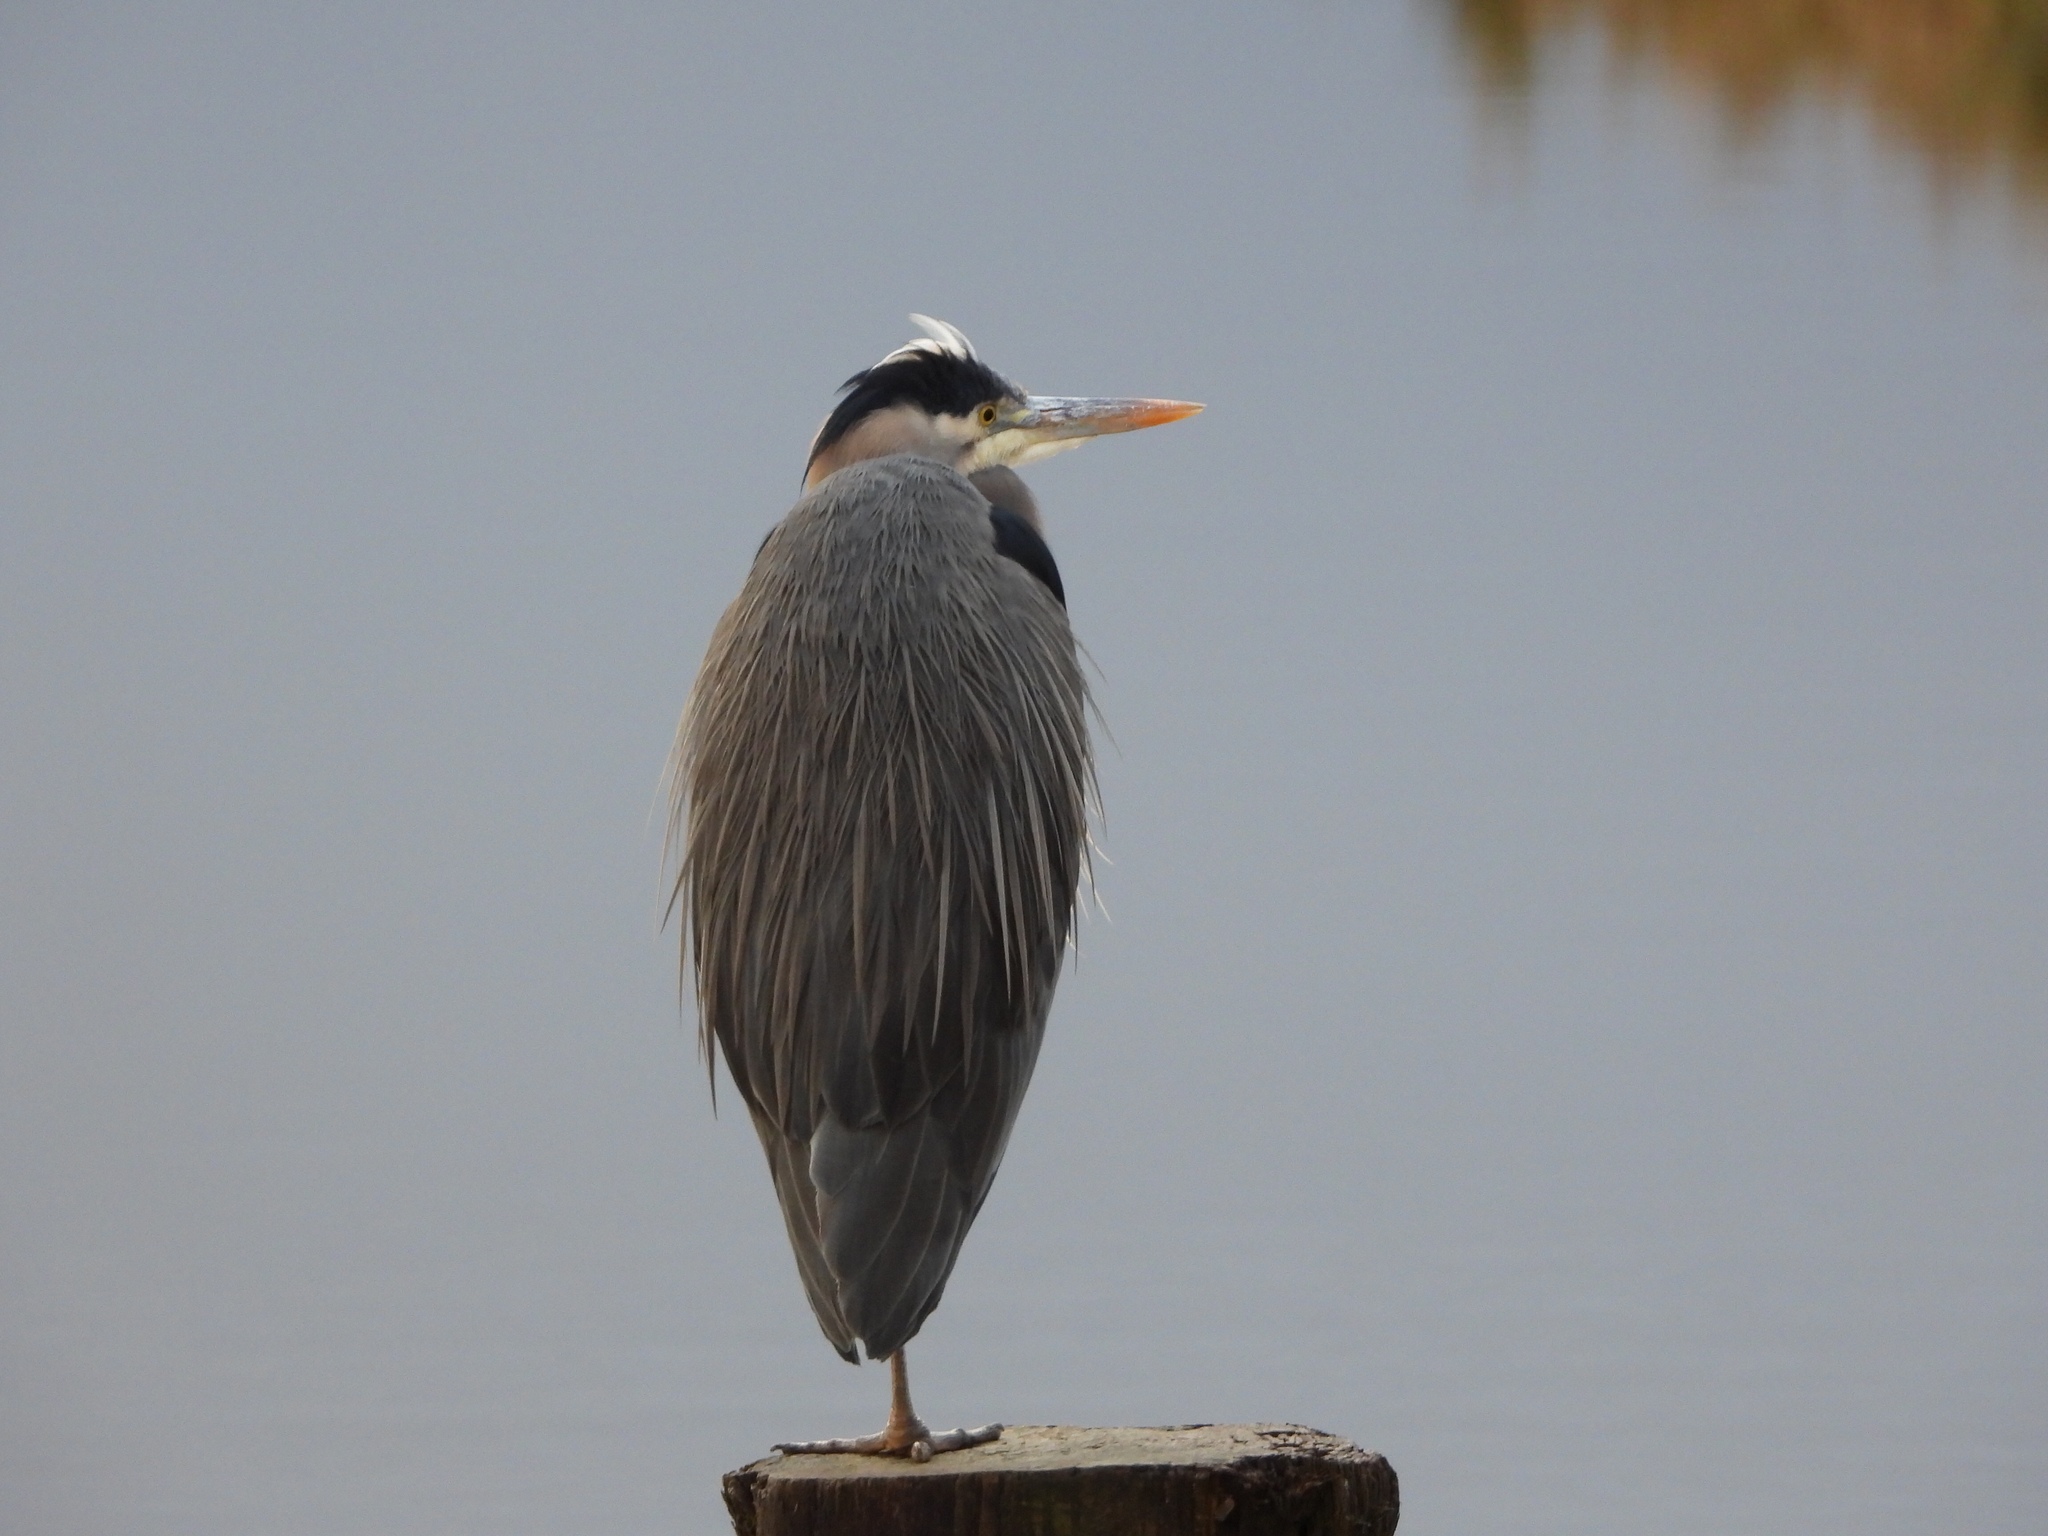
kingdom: Animalia
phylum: Chordata
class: Aves
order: Pelecaniformes
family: Ardeidae
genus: Ardea
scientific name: Ardea herodias
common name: Great blue heron
